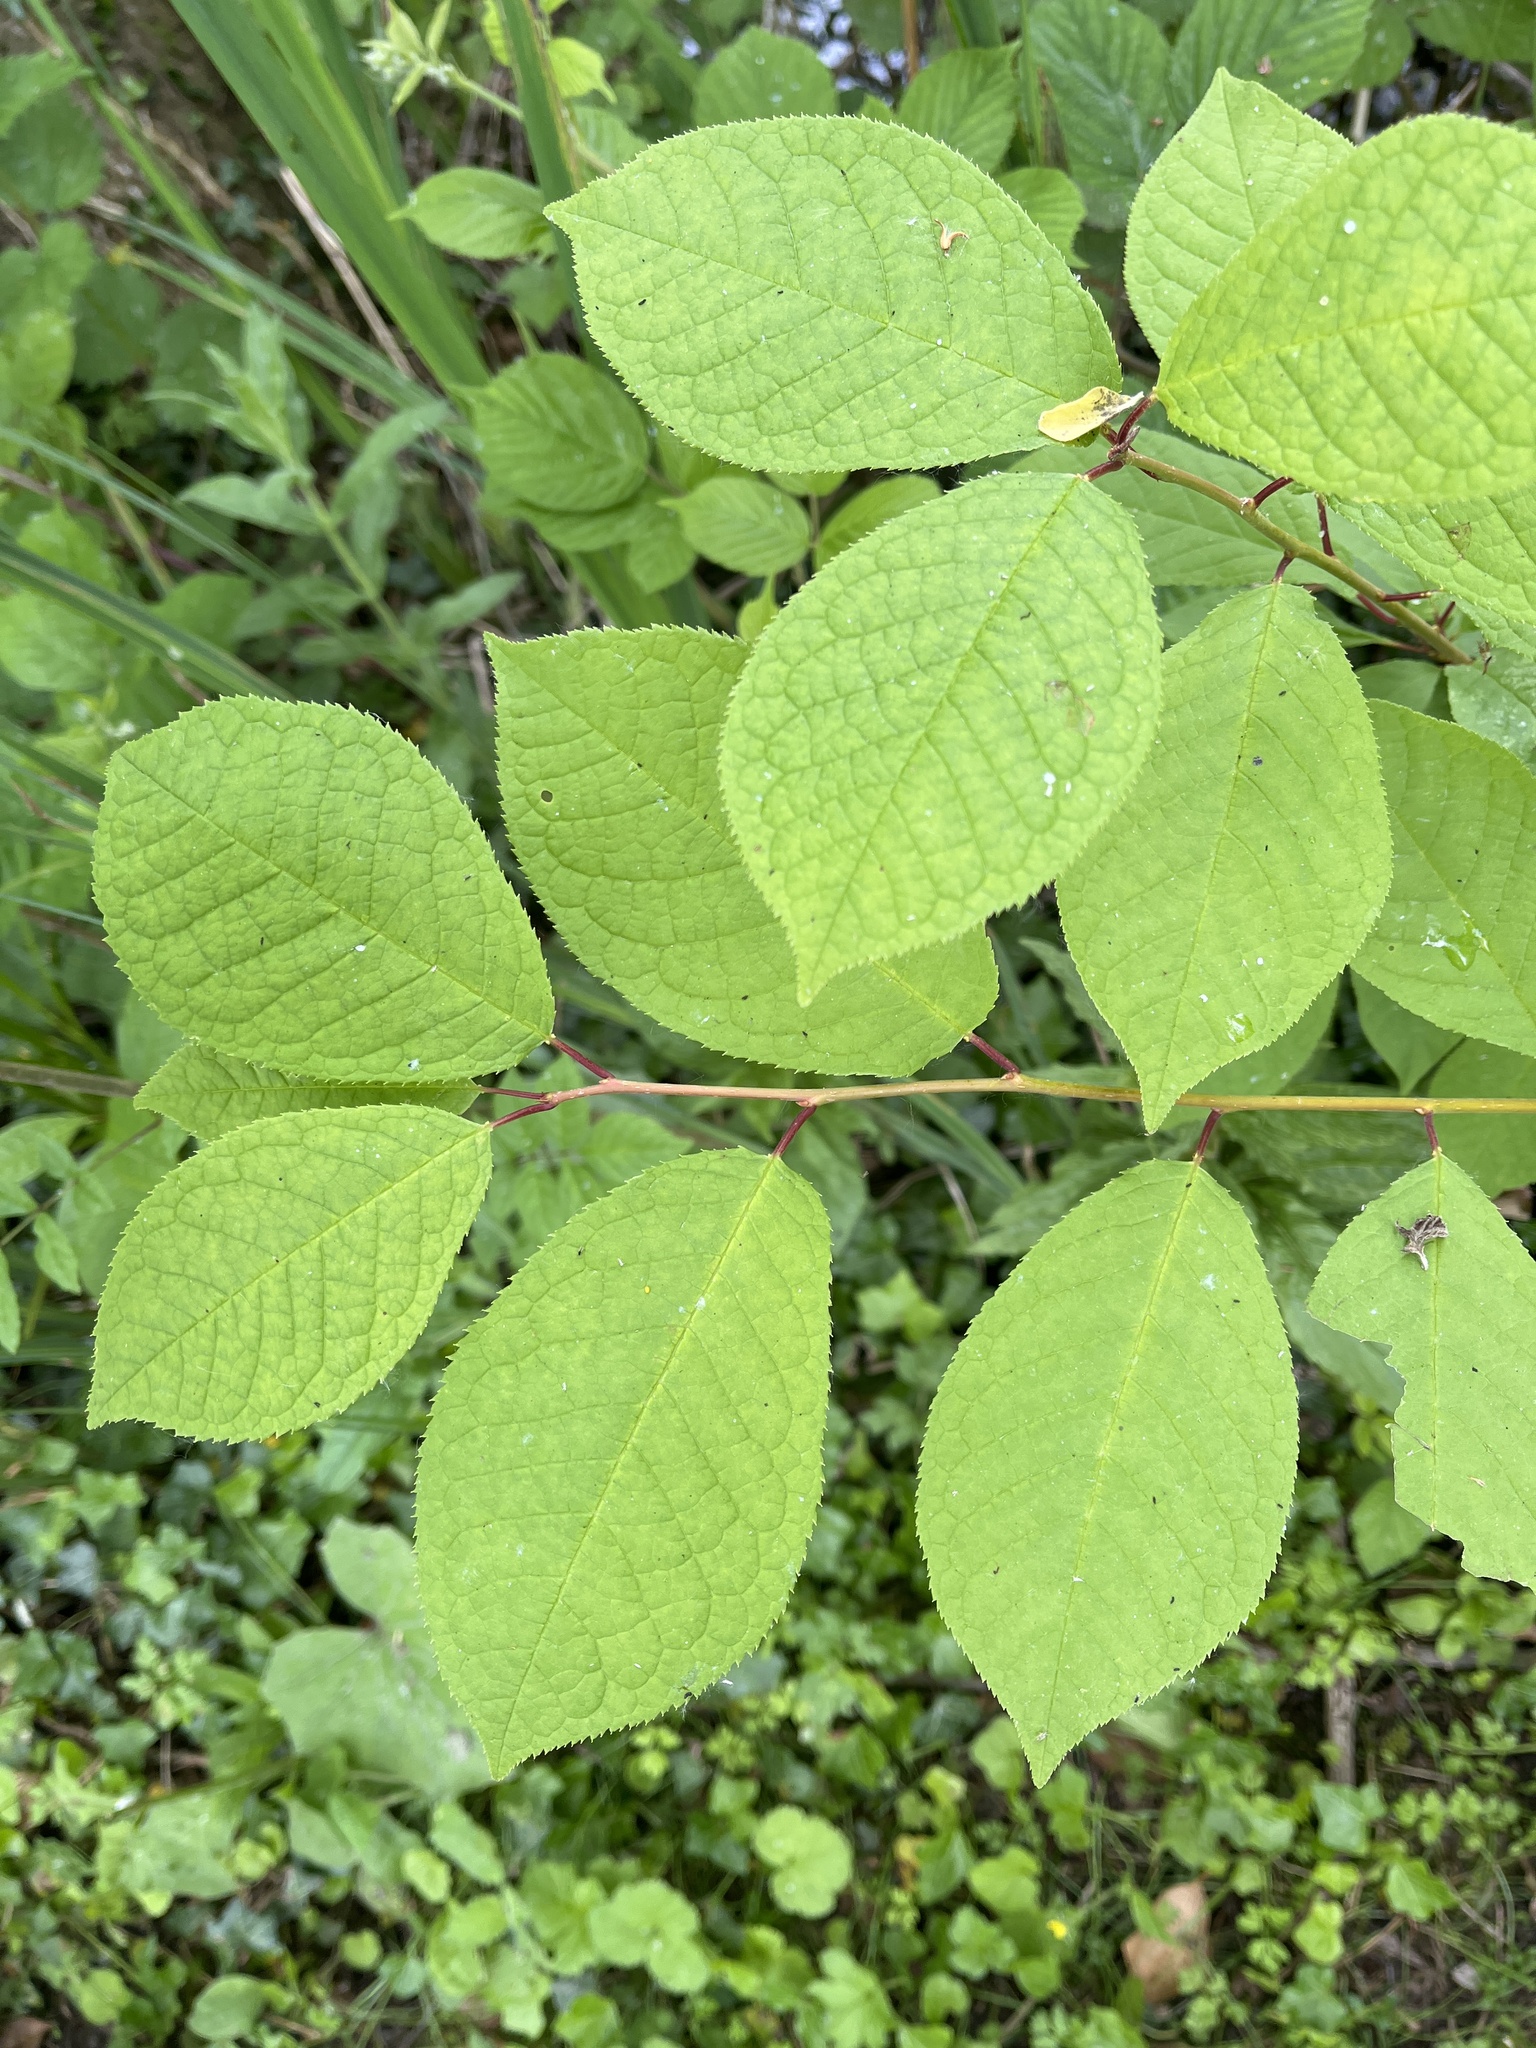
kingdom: Plantae
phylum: Tracheophyta
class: Magnoliopsida
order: Rosales
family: Rosaceae
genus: Prunus
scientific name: Prunus padus
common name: Bird cherry
